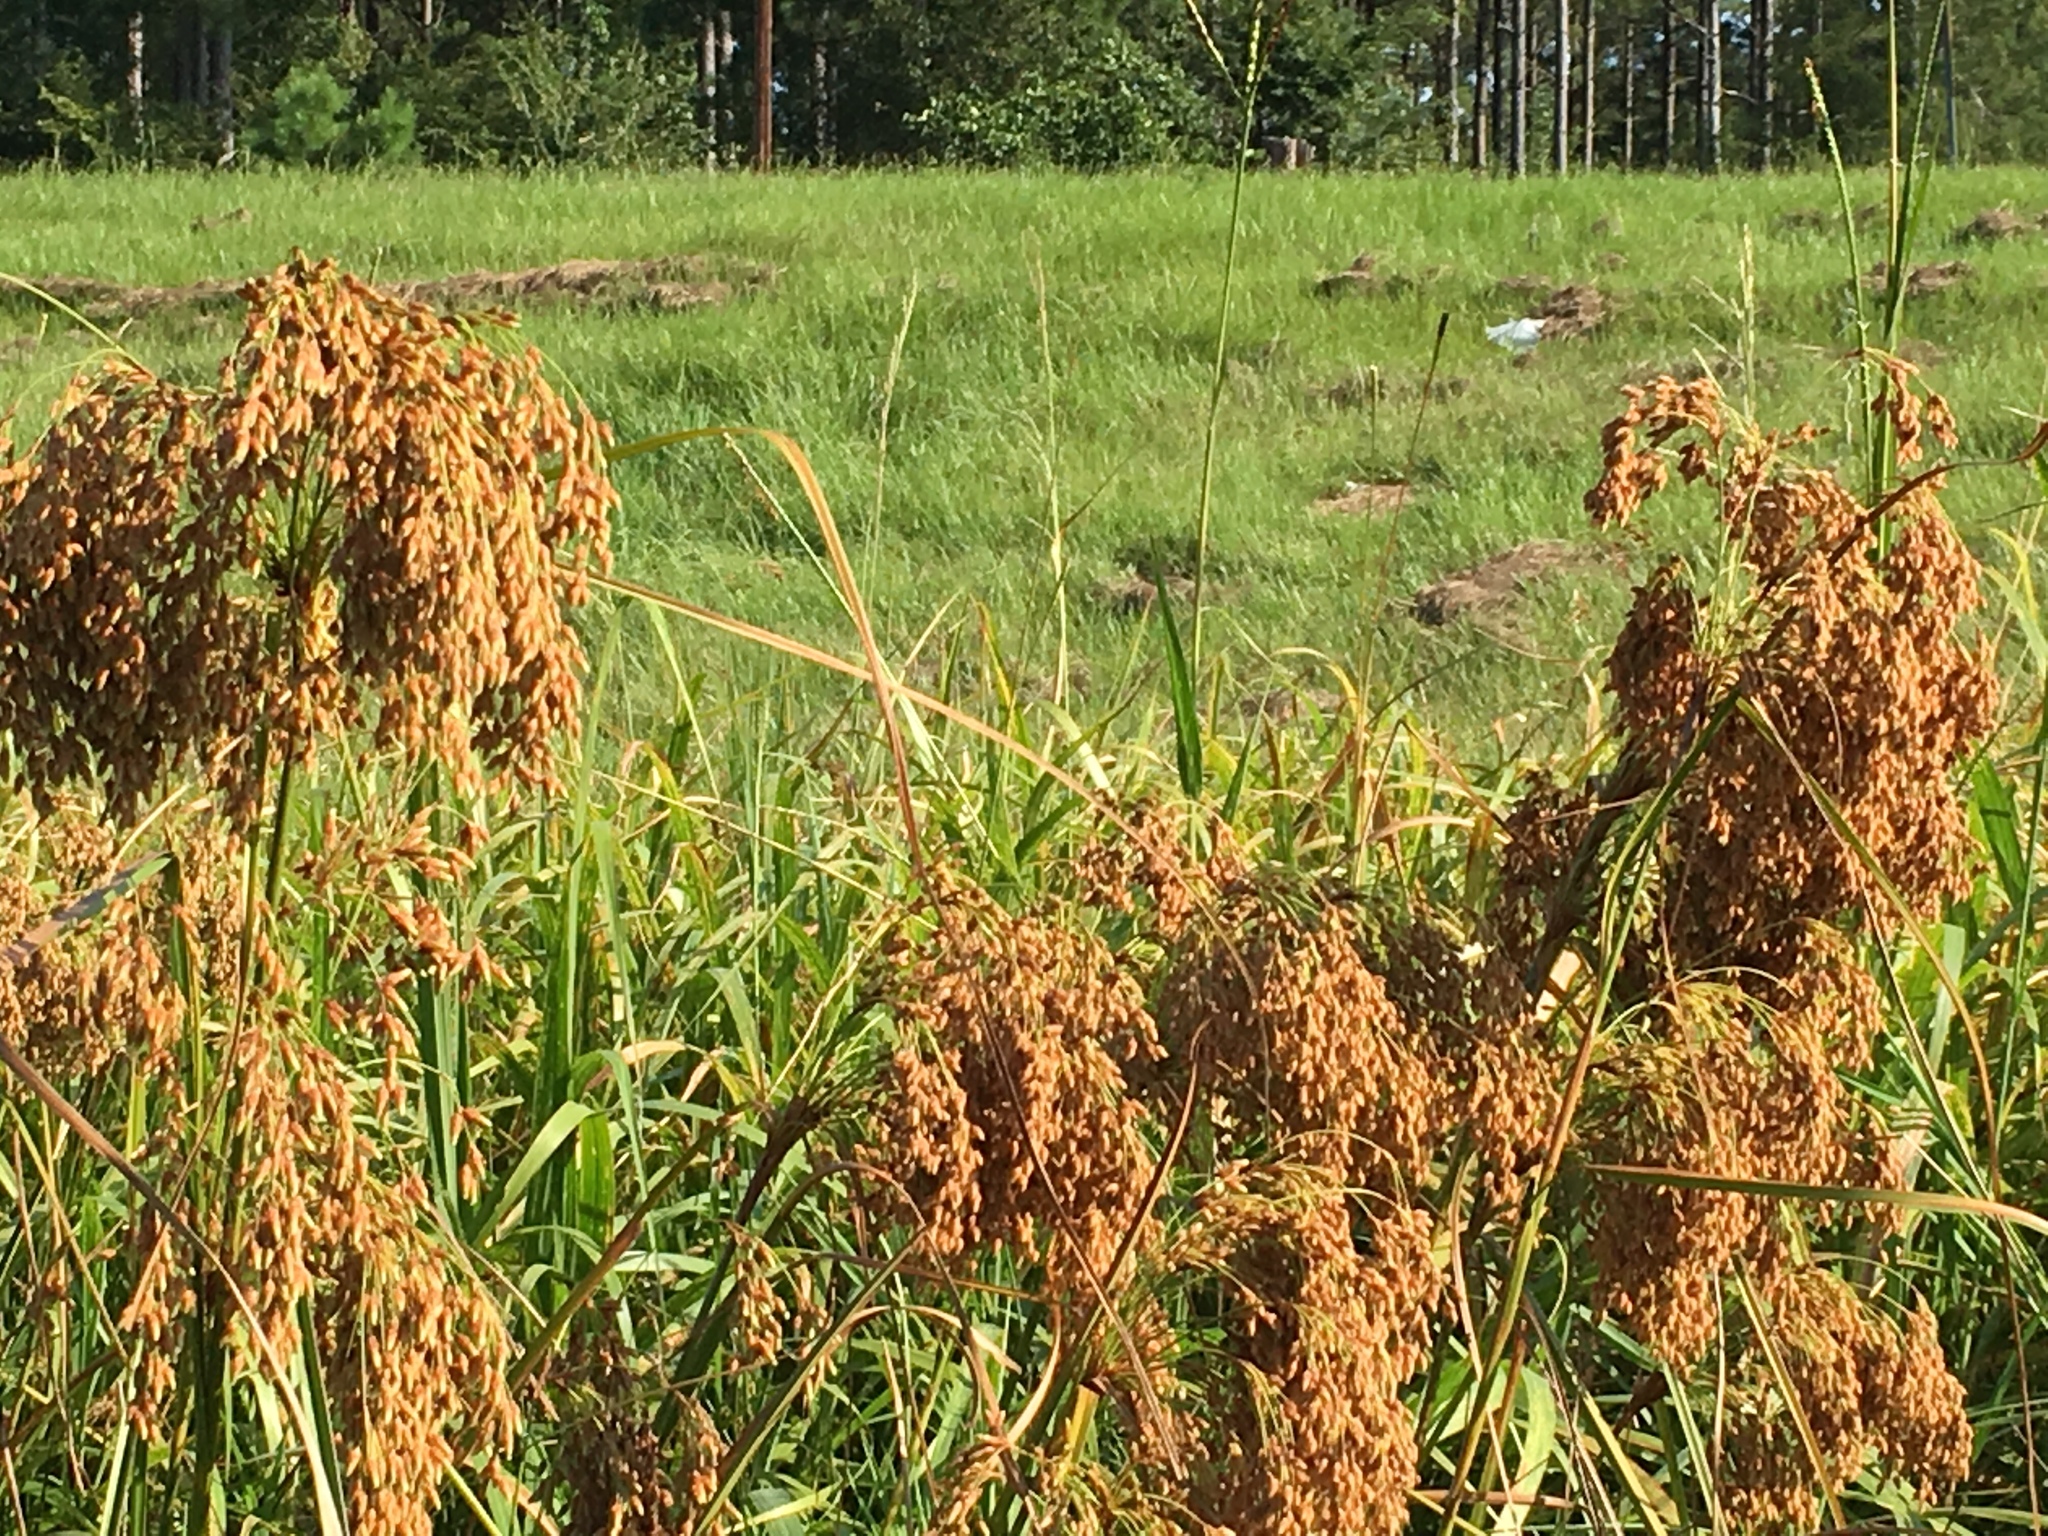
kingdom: Plantae
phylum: Tracheophyta
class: Liliopsida
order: Poales
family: Cyperaceae
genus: Scirpus
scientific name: Scirpus cyperinus
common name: Black-sheathed bulrush
